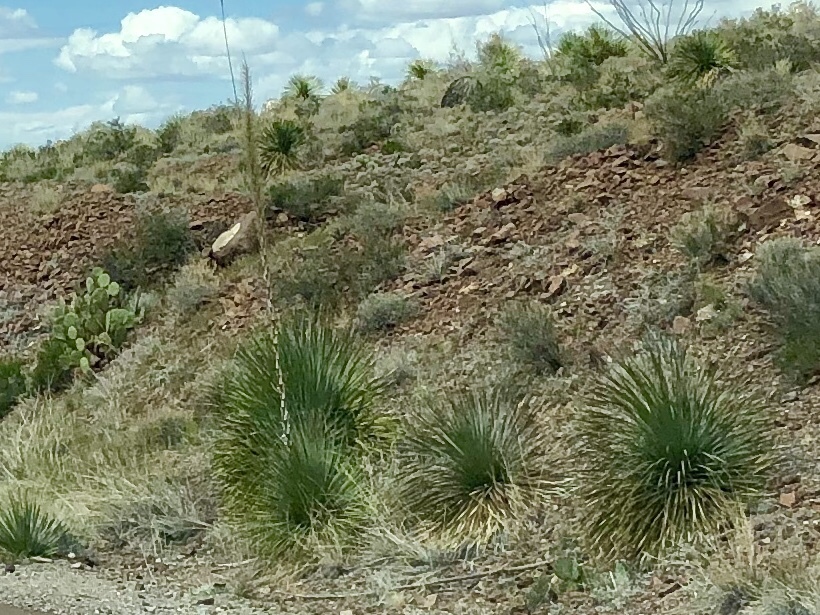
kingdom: Plantae
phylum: Tracheophyta
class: Liliopsida
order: Asparagales
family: Asparagaceae
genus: Dasylirion
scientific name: Dasylirion wheeleri
